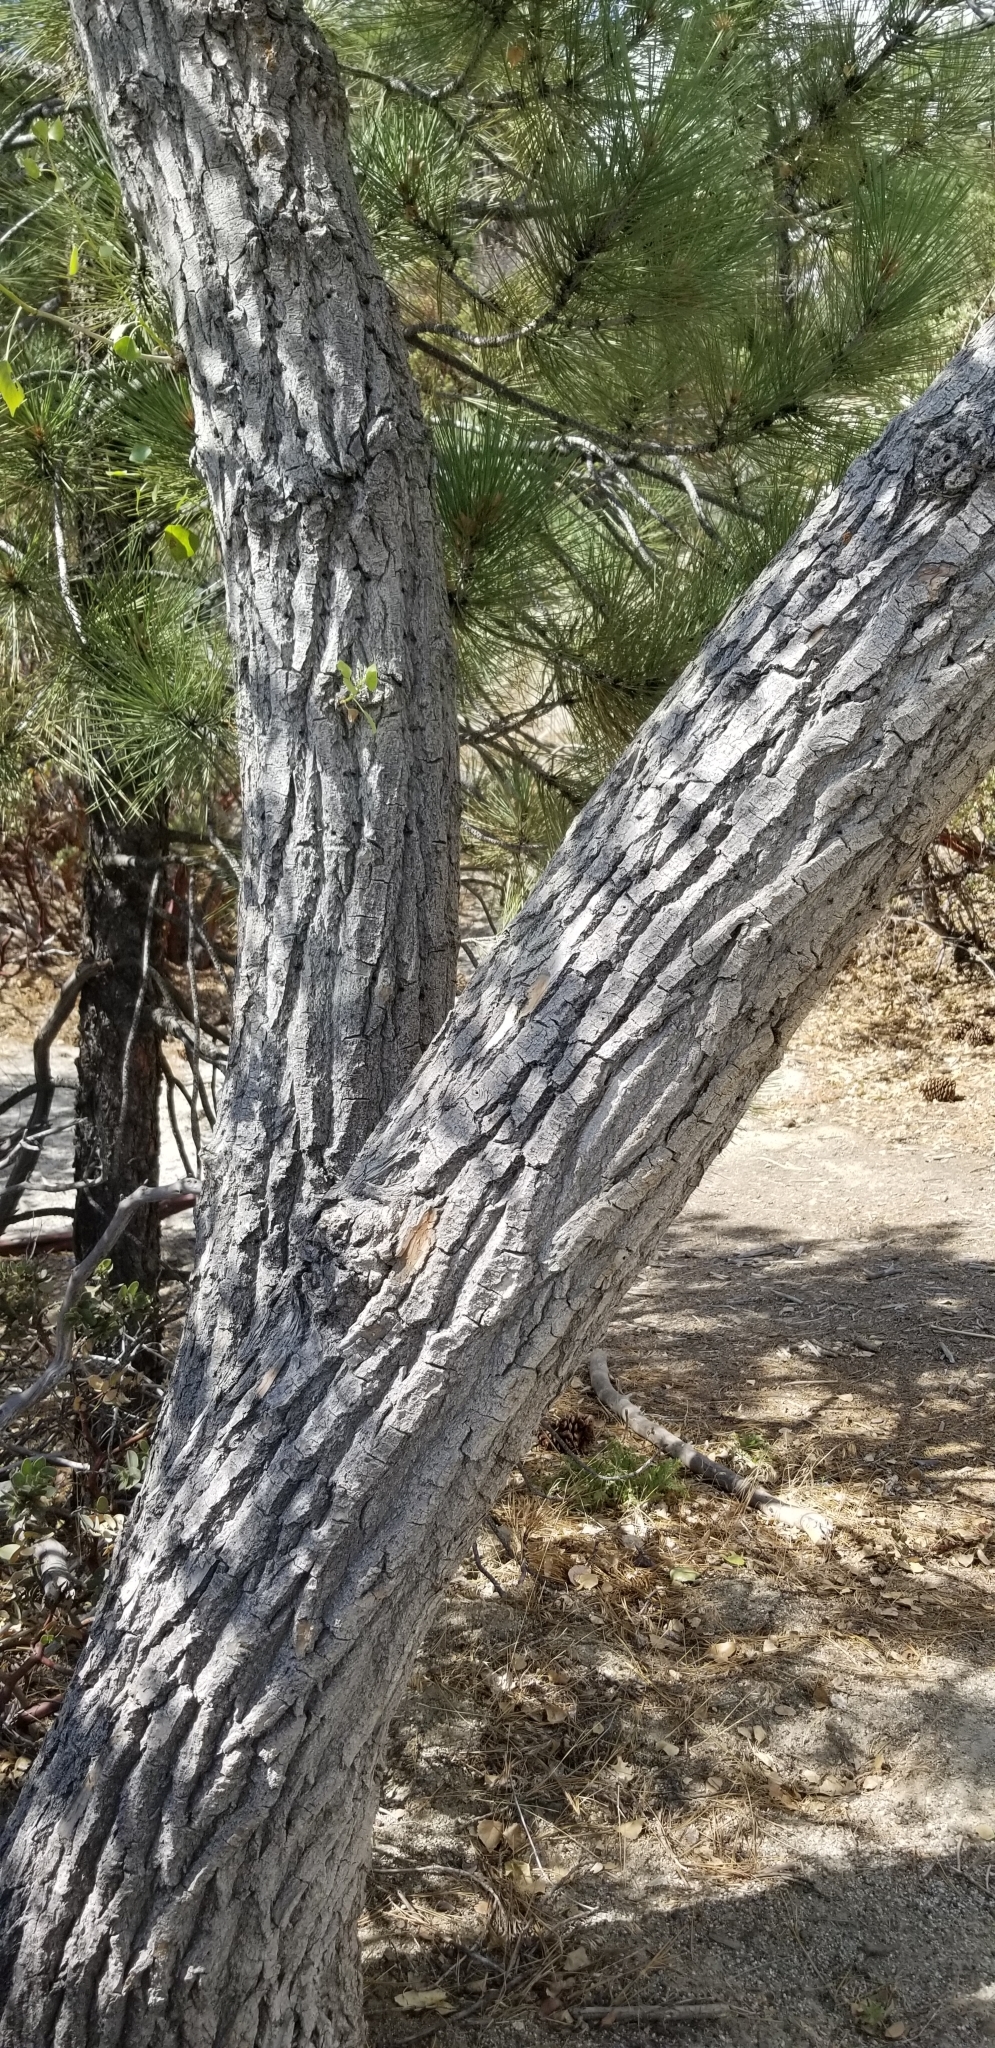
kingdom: Plantae
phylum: Tracheophyta
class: Magnoliopsida
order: Malpighiales
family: Salicaceae
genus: Populus
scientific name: Populus fremontii
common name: Fremont's cottonwood
